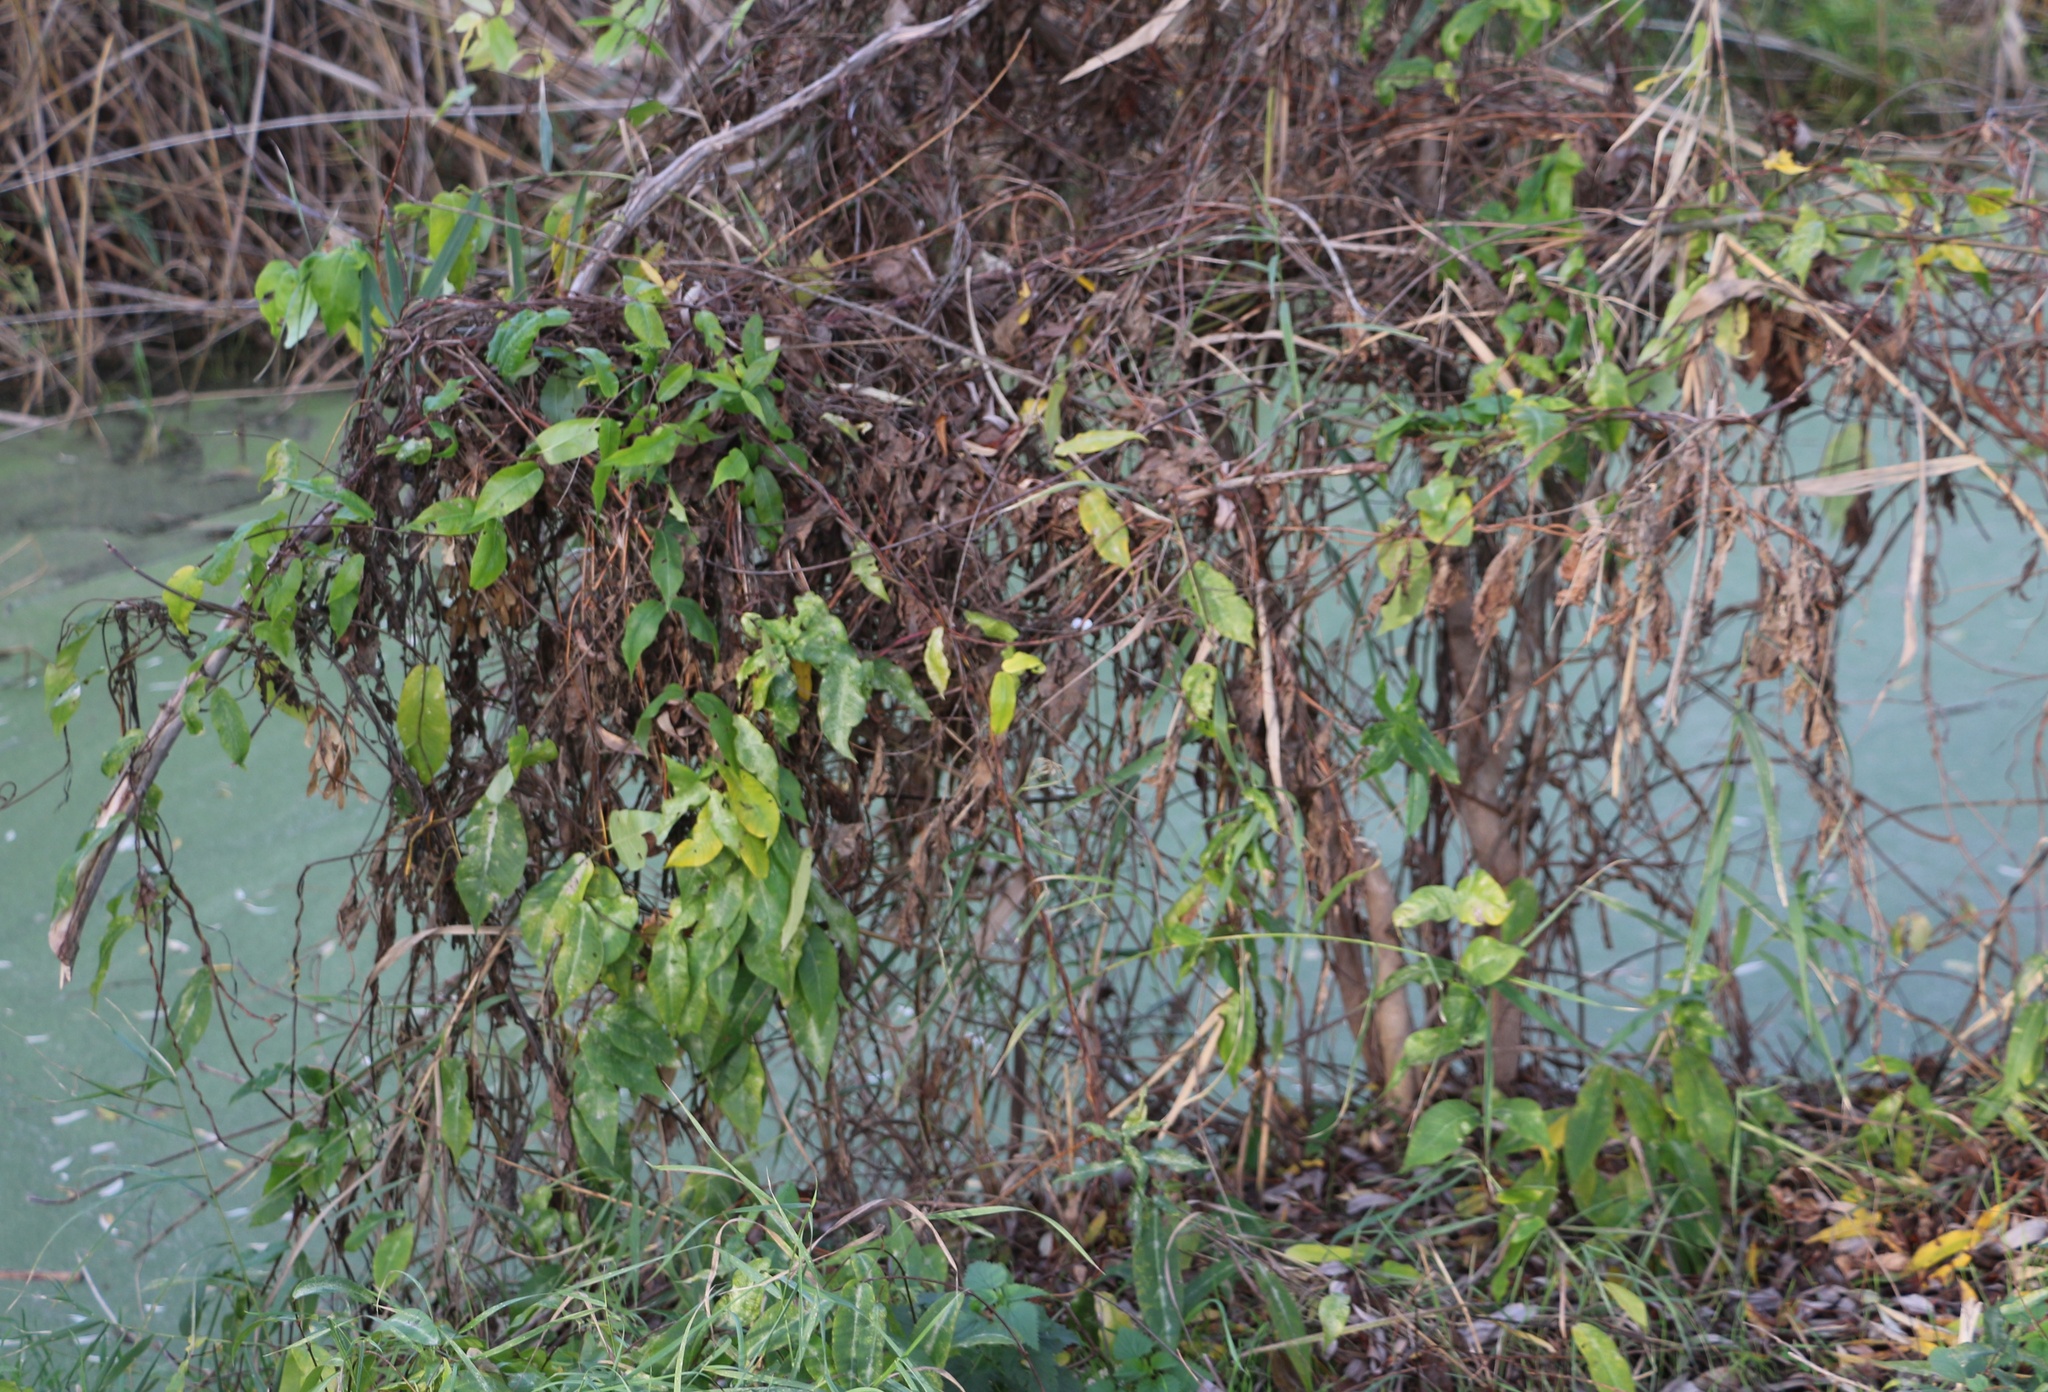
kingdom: Plantae
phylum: Tracheophyta
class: Magnoliopsida
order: Gentianales
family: Apocynaceae
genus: Periploca
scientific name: Periploca graeca
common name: Silkvine
